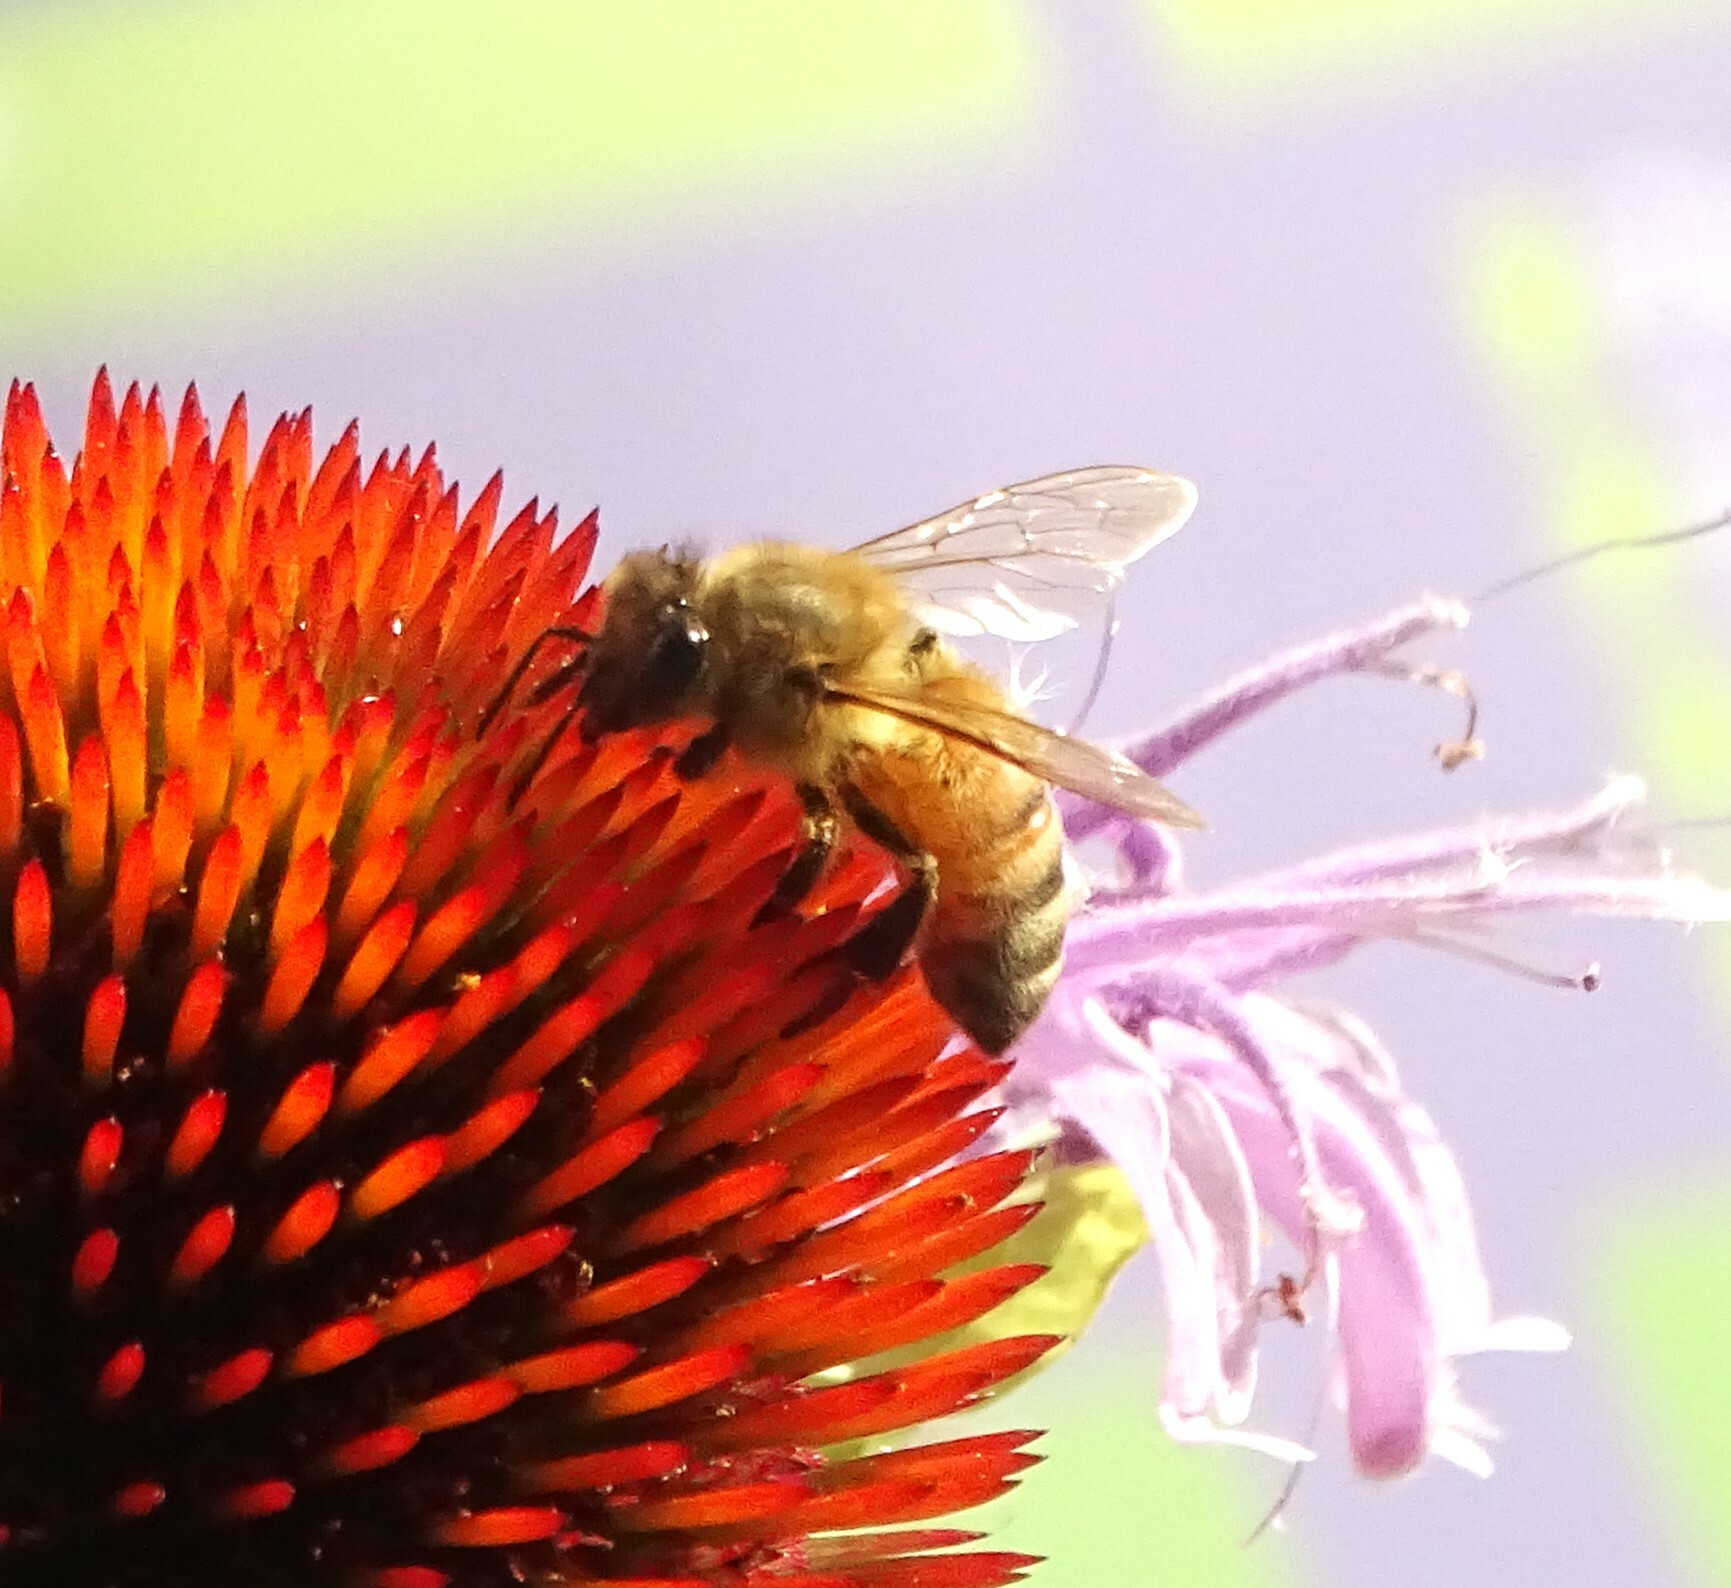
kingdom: Animalia
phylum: Arthropoda
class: Insecta
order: Hymenoptera
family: Apidae
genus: Apis
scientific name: Apis mellifera
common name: Honey bee
